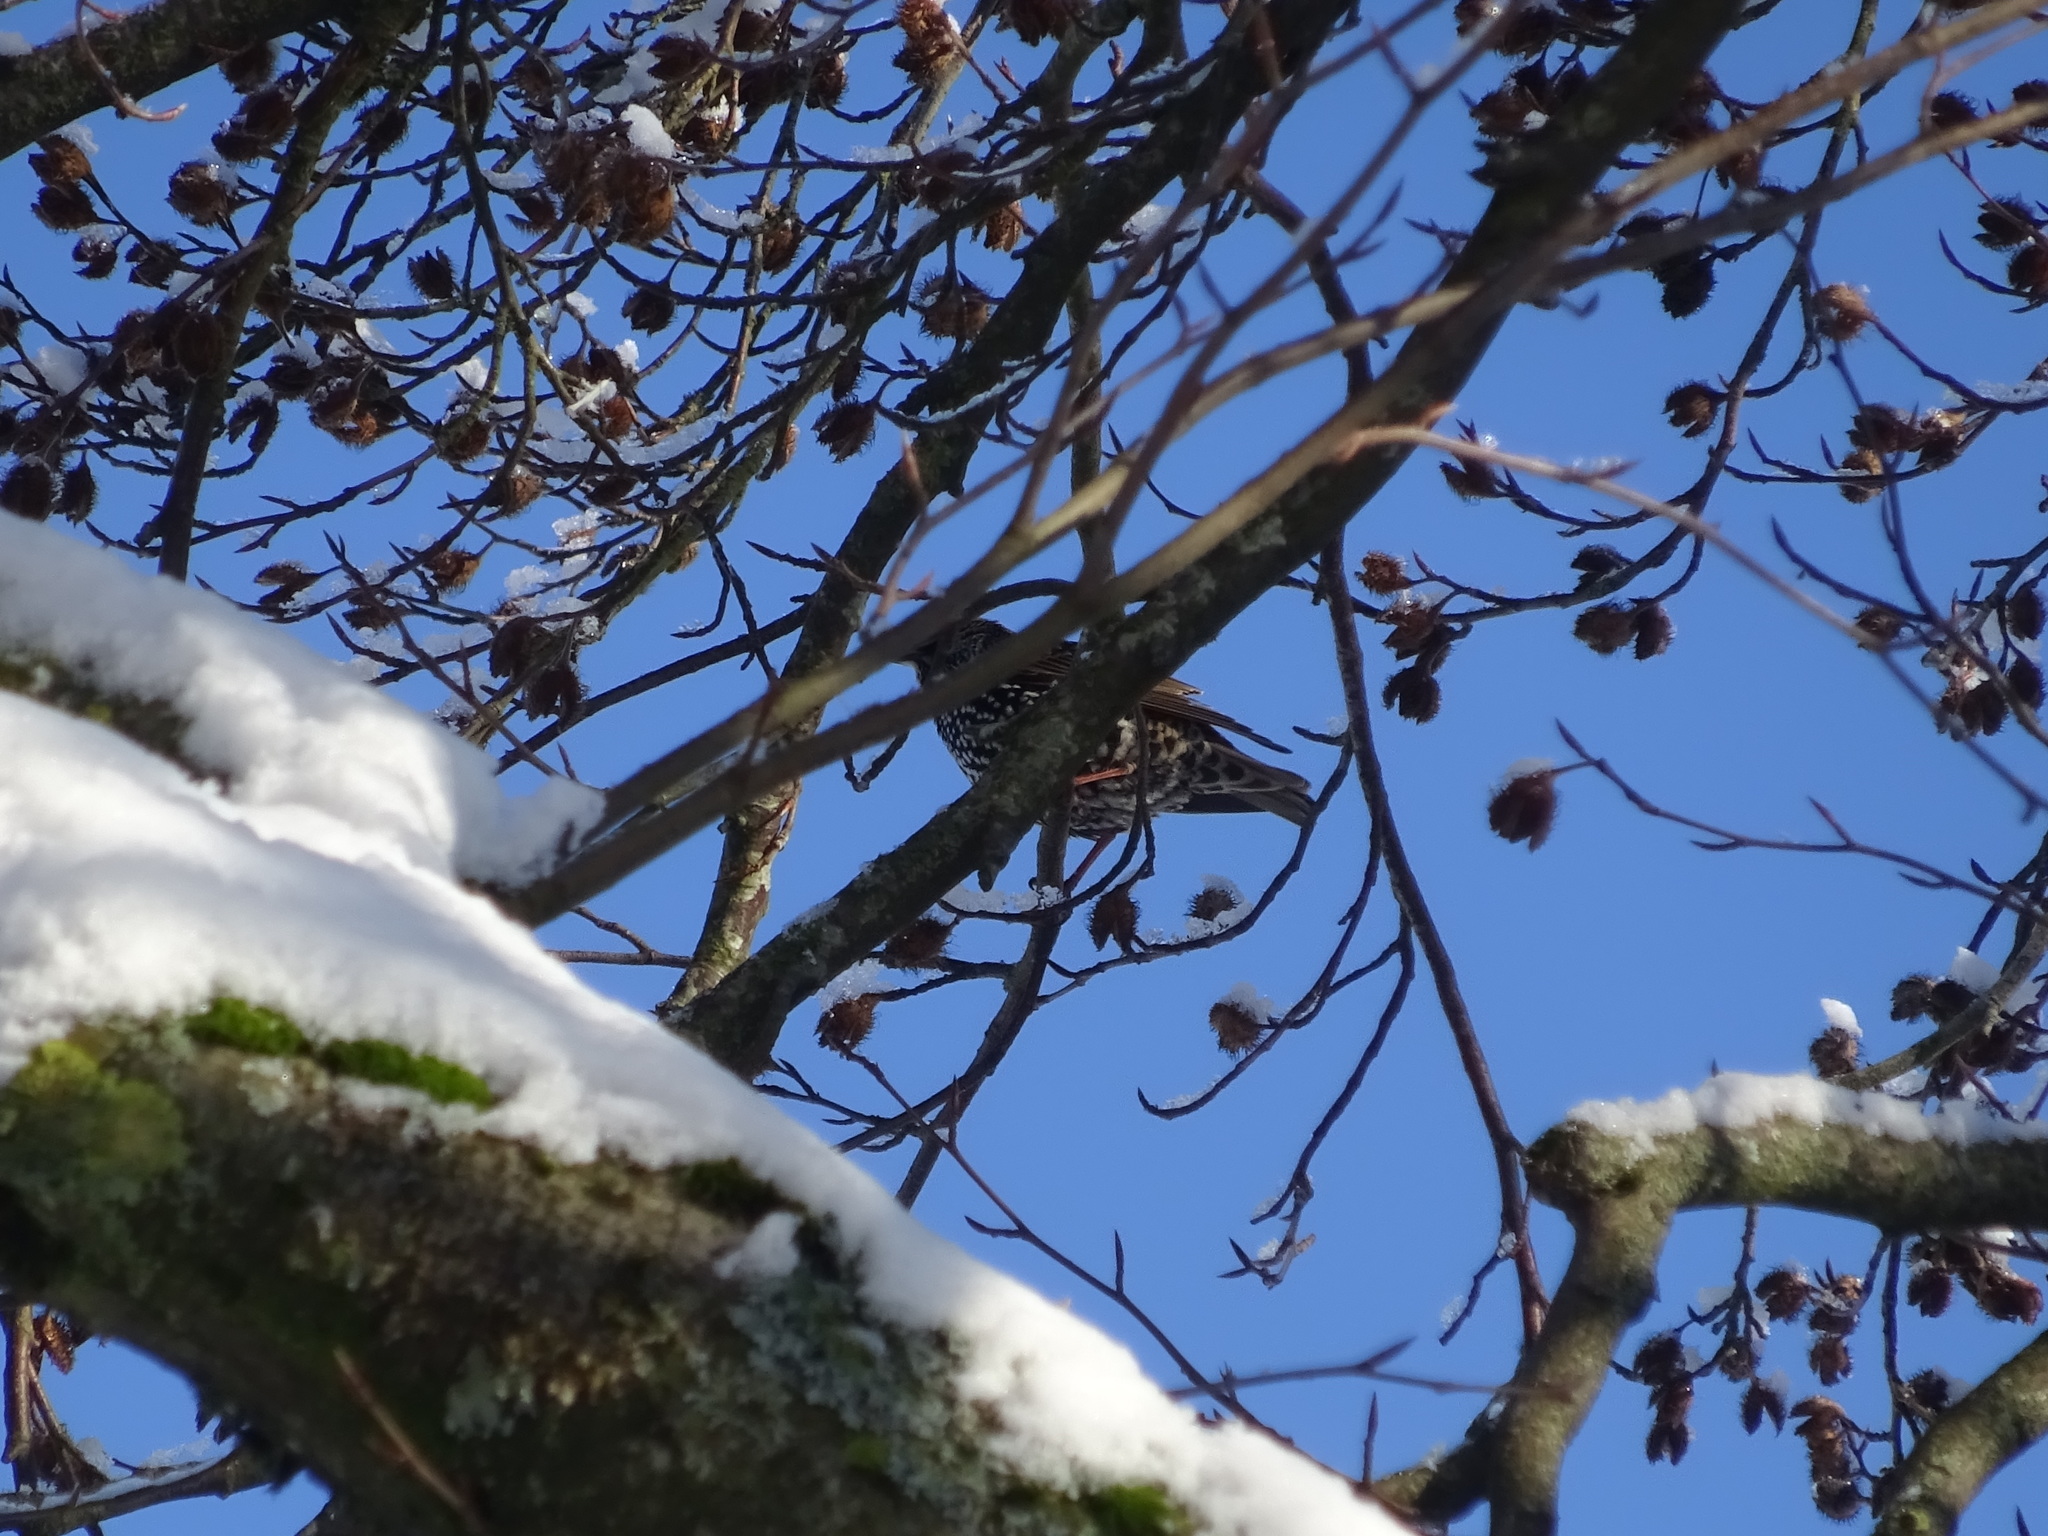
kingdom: Animalia
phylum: Chordata
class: Aves
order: Passeriformes
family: Sturnidae
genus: Sturnus
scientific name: Sturnus vulgaris
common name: Common starling
